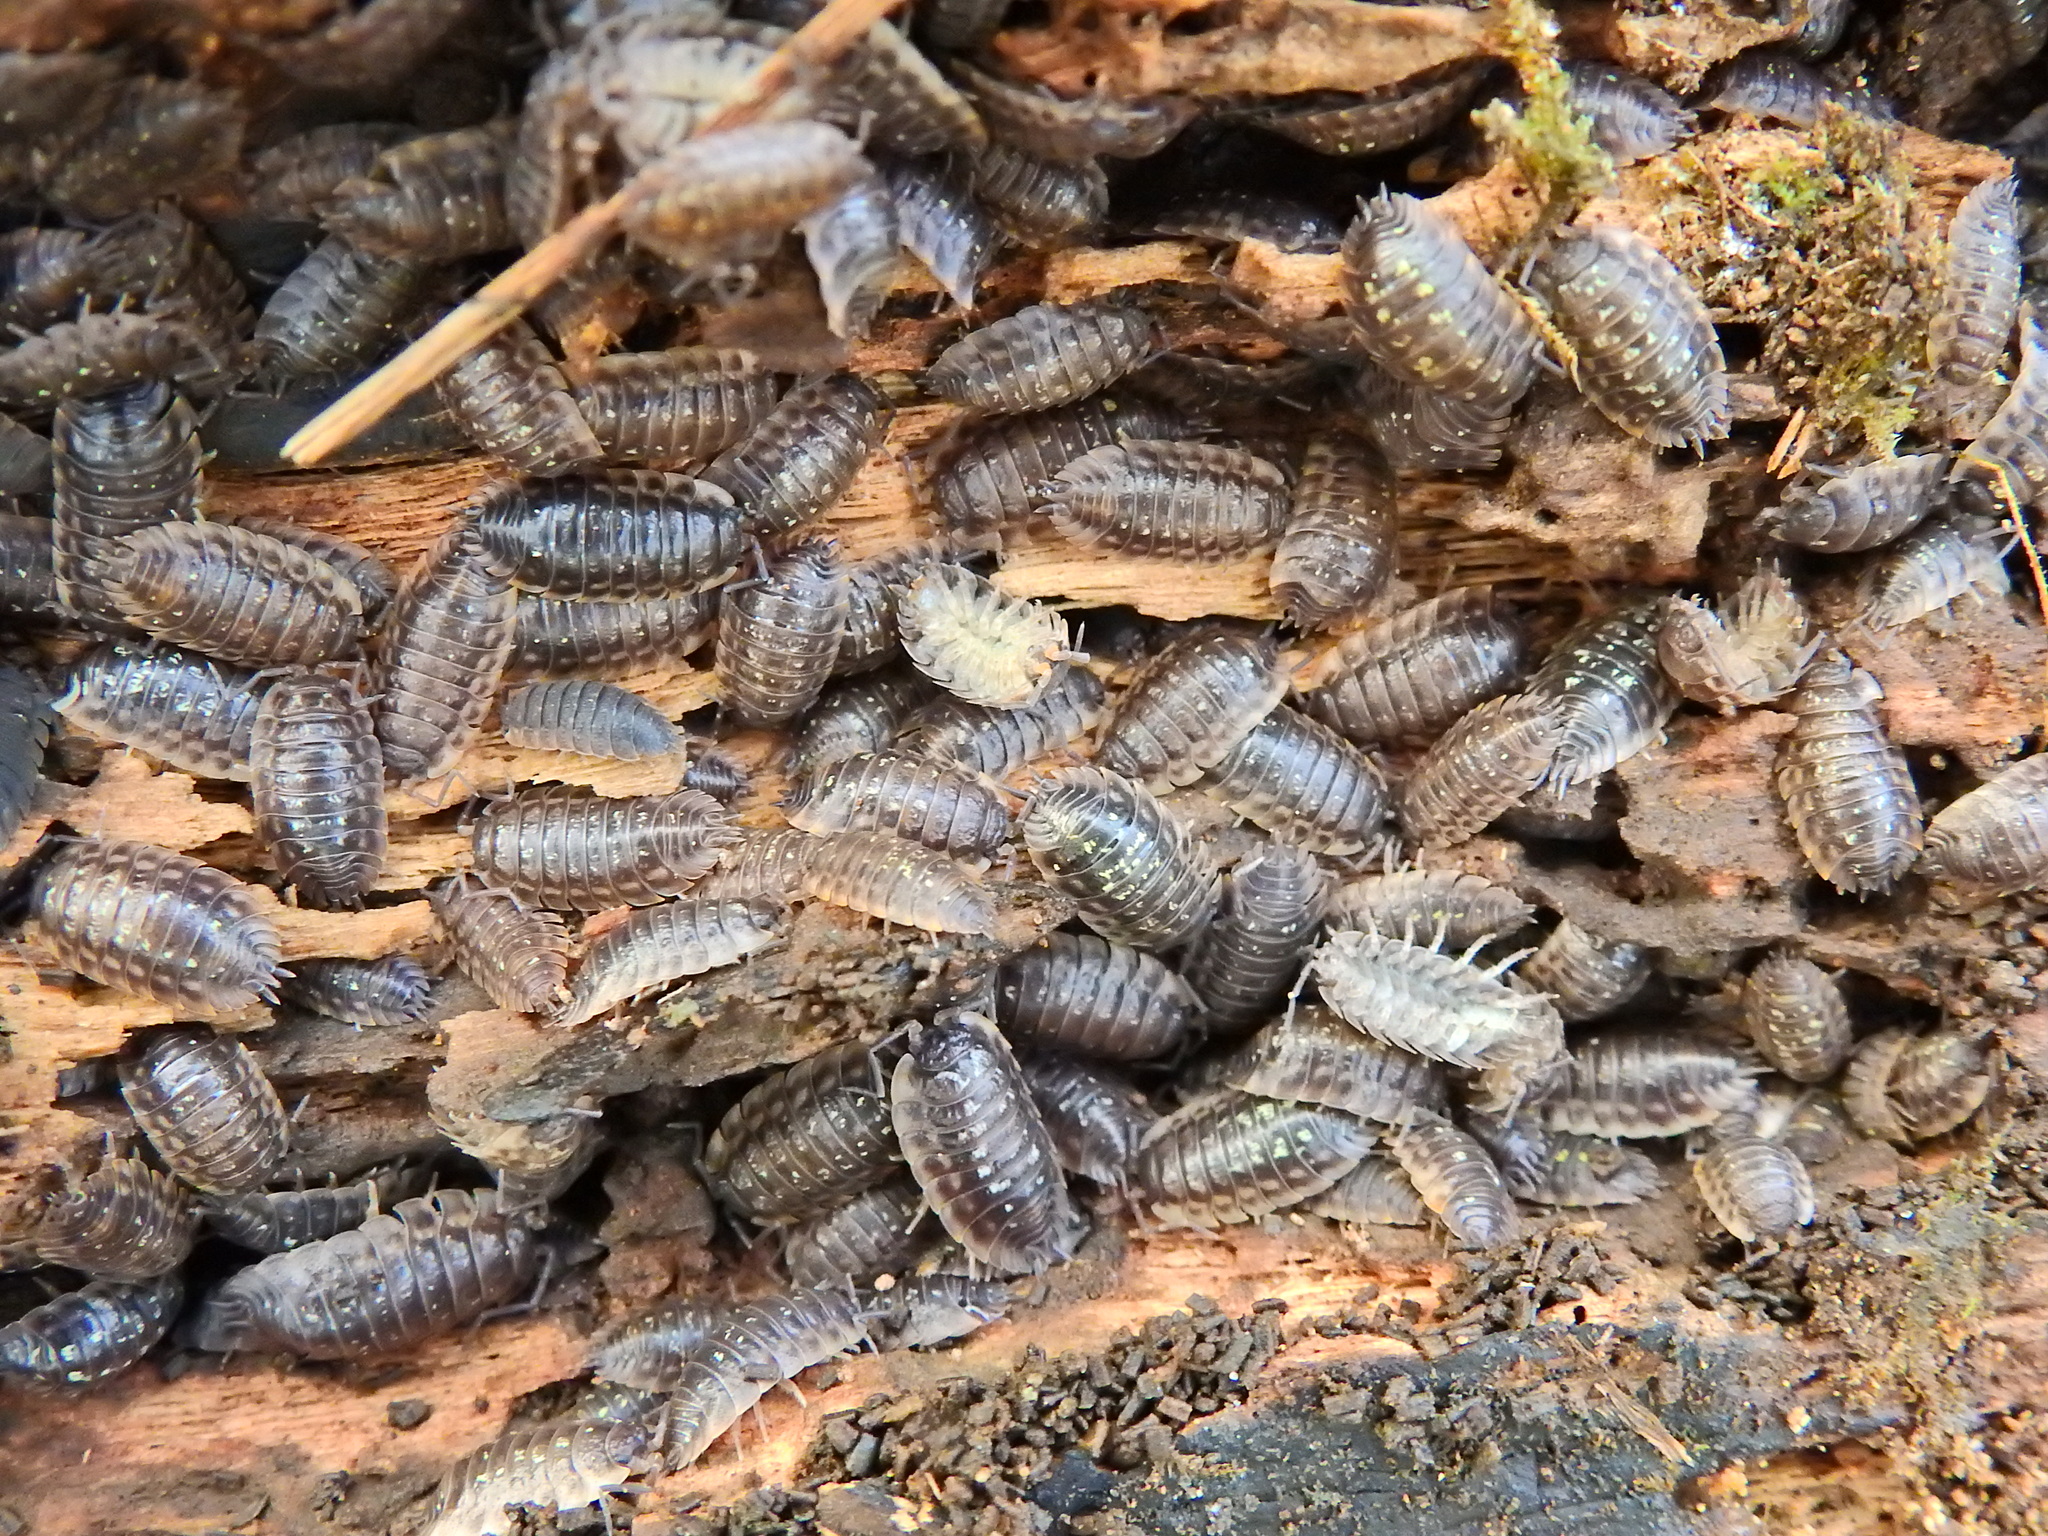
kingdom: Animalia
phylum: Arthropoda
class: Malacostraca
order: Isopoda
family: Oniscidae
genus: Oniscus
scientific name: Oniscus asellus
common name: Common shiny woodlouse
